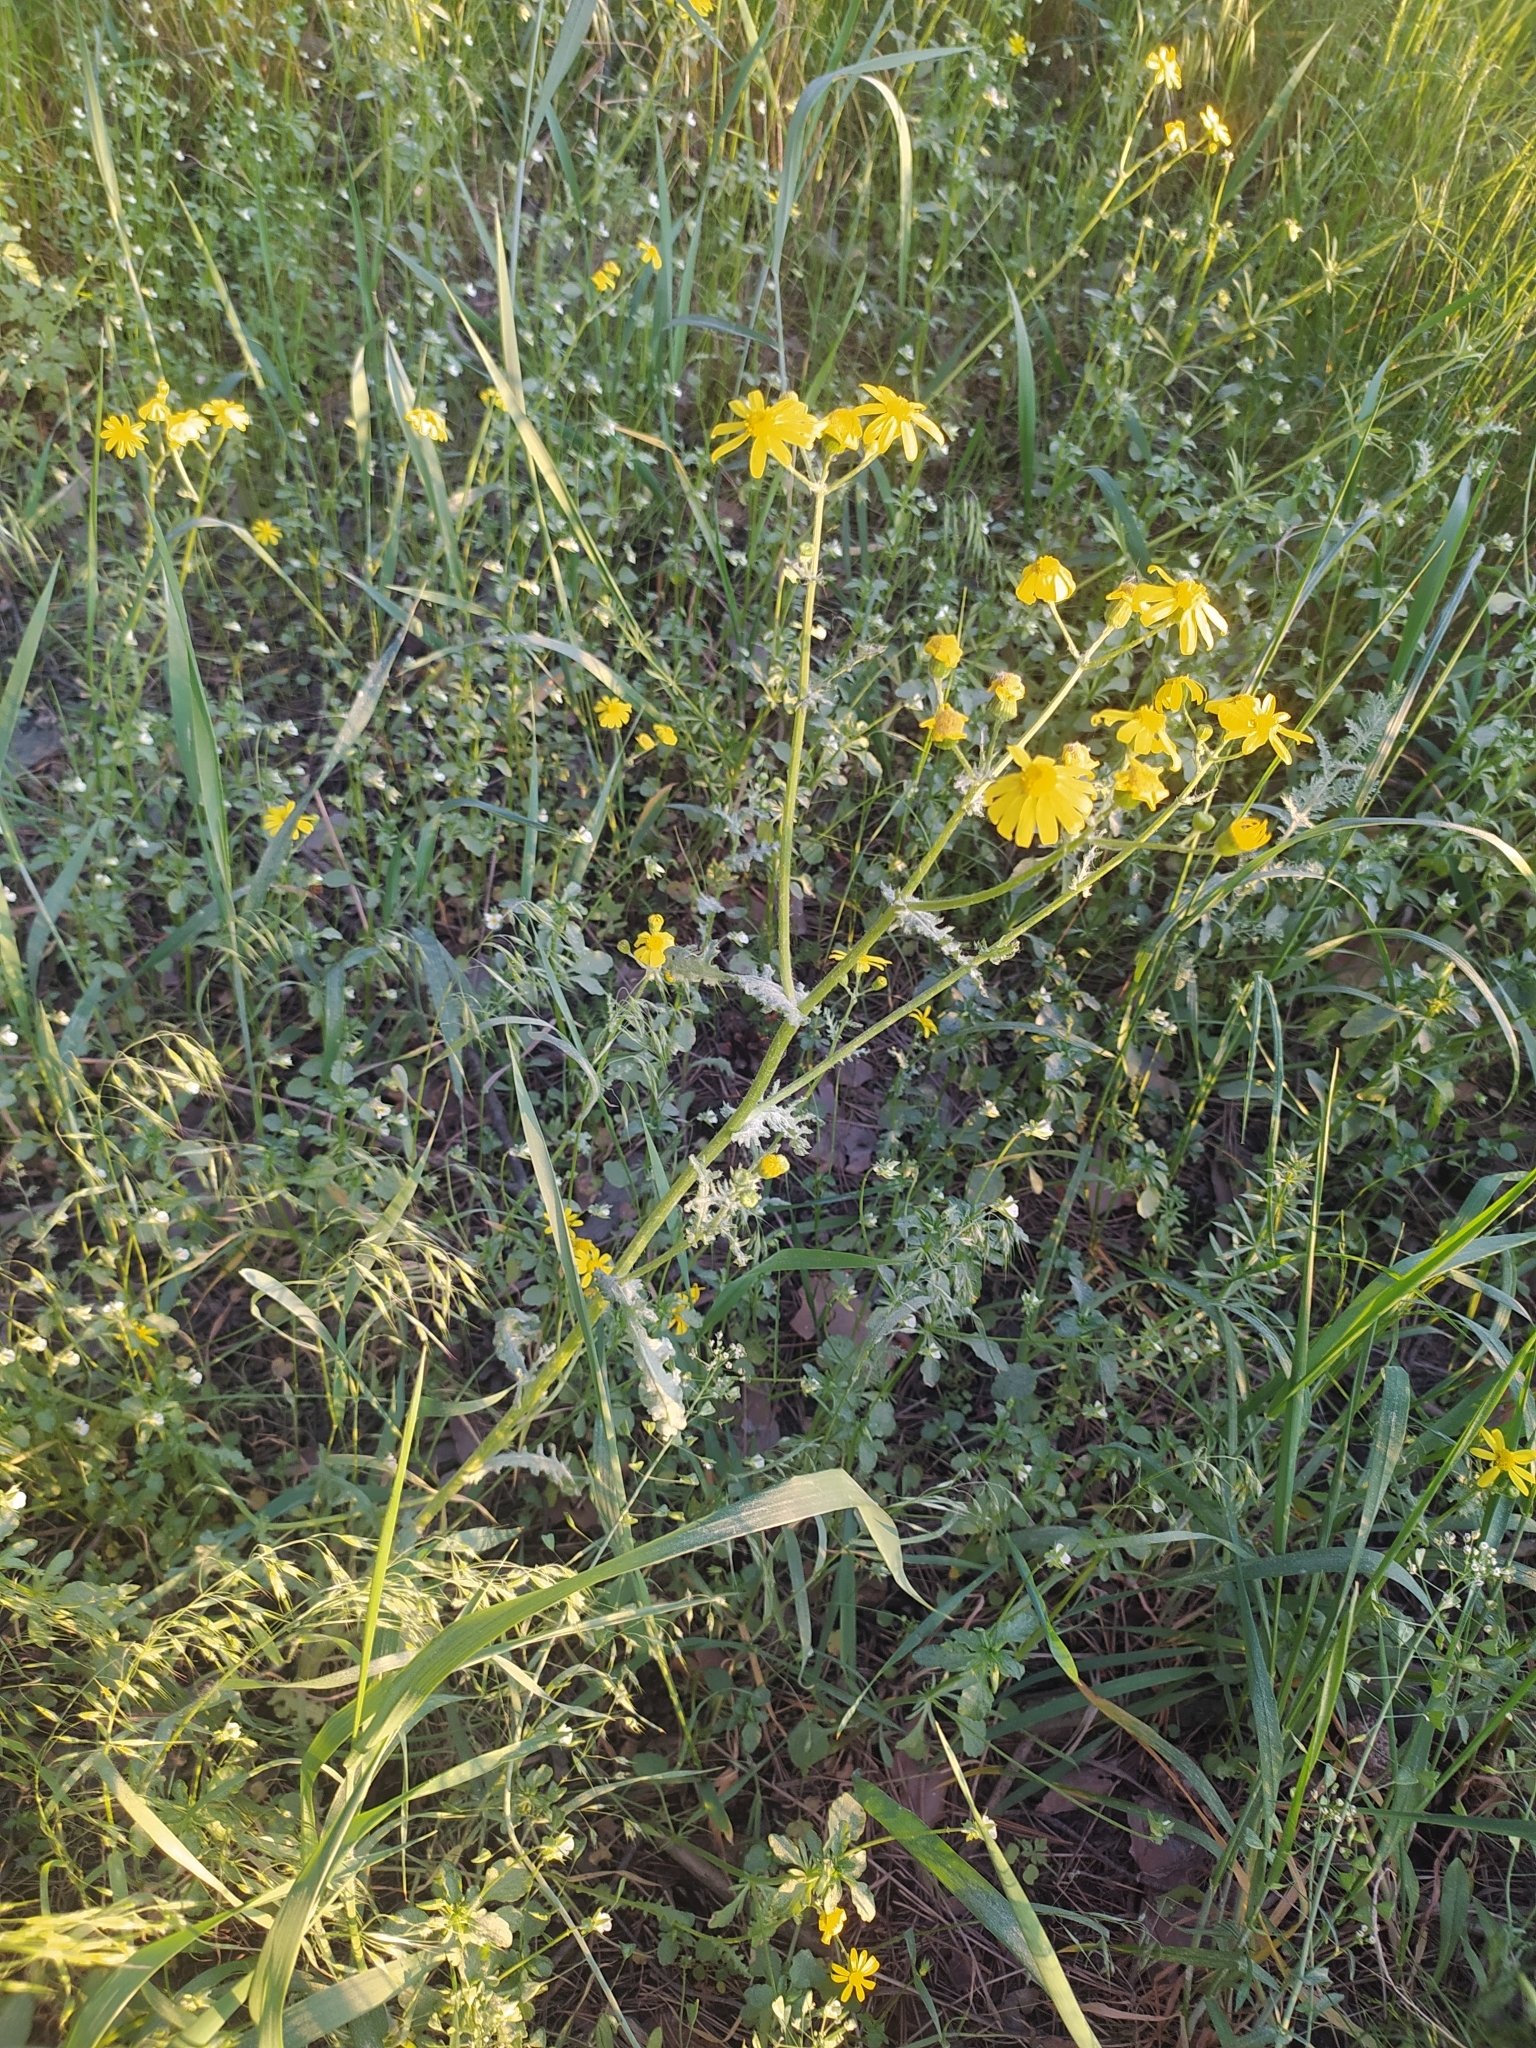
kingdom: Plantae
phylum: Tracheophyta
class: Magnoliopsida
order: Asterales
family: Asteraceae
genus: Senecio
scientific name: Senecio vernalis
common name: Eastern groundsel
